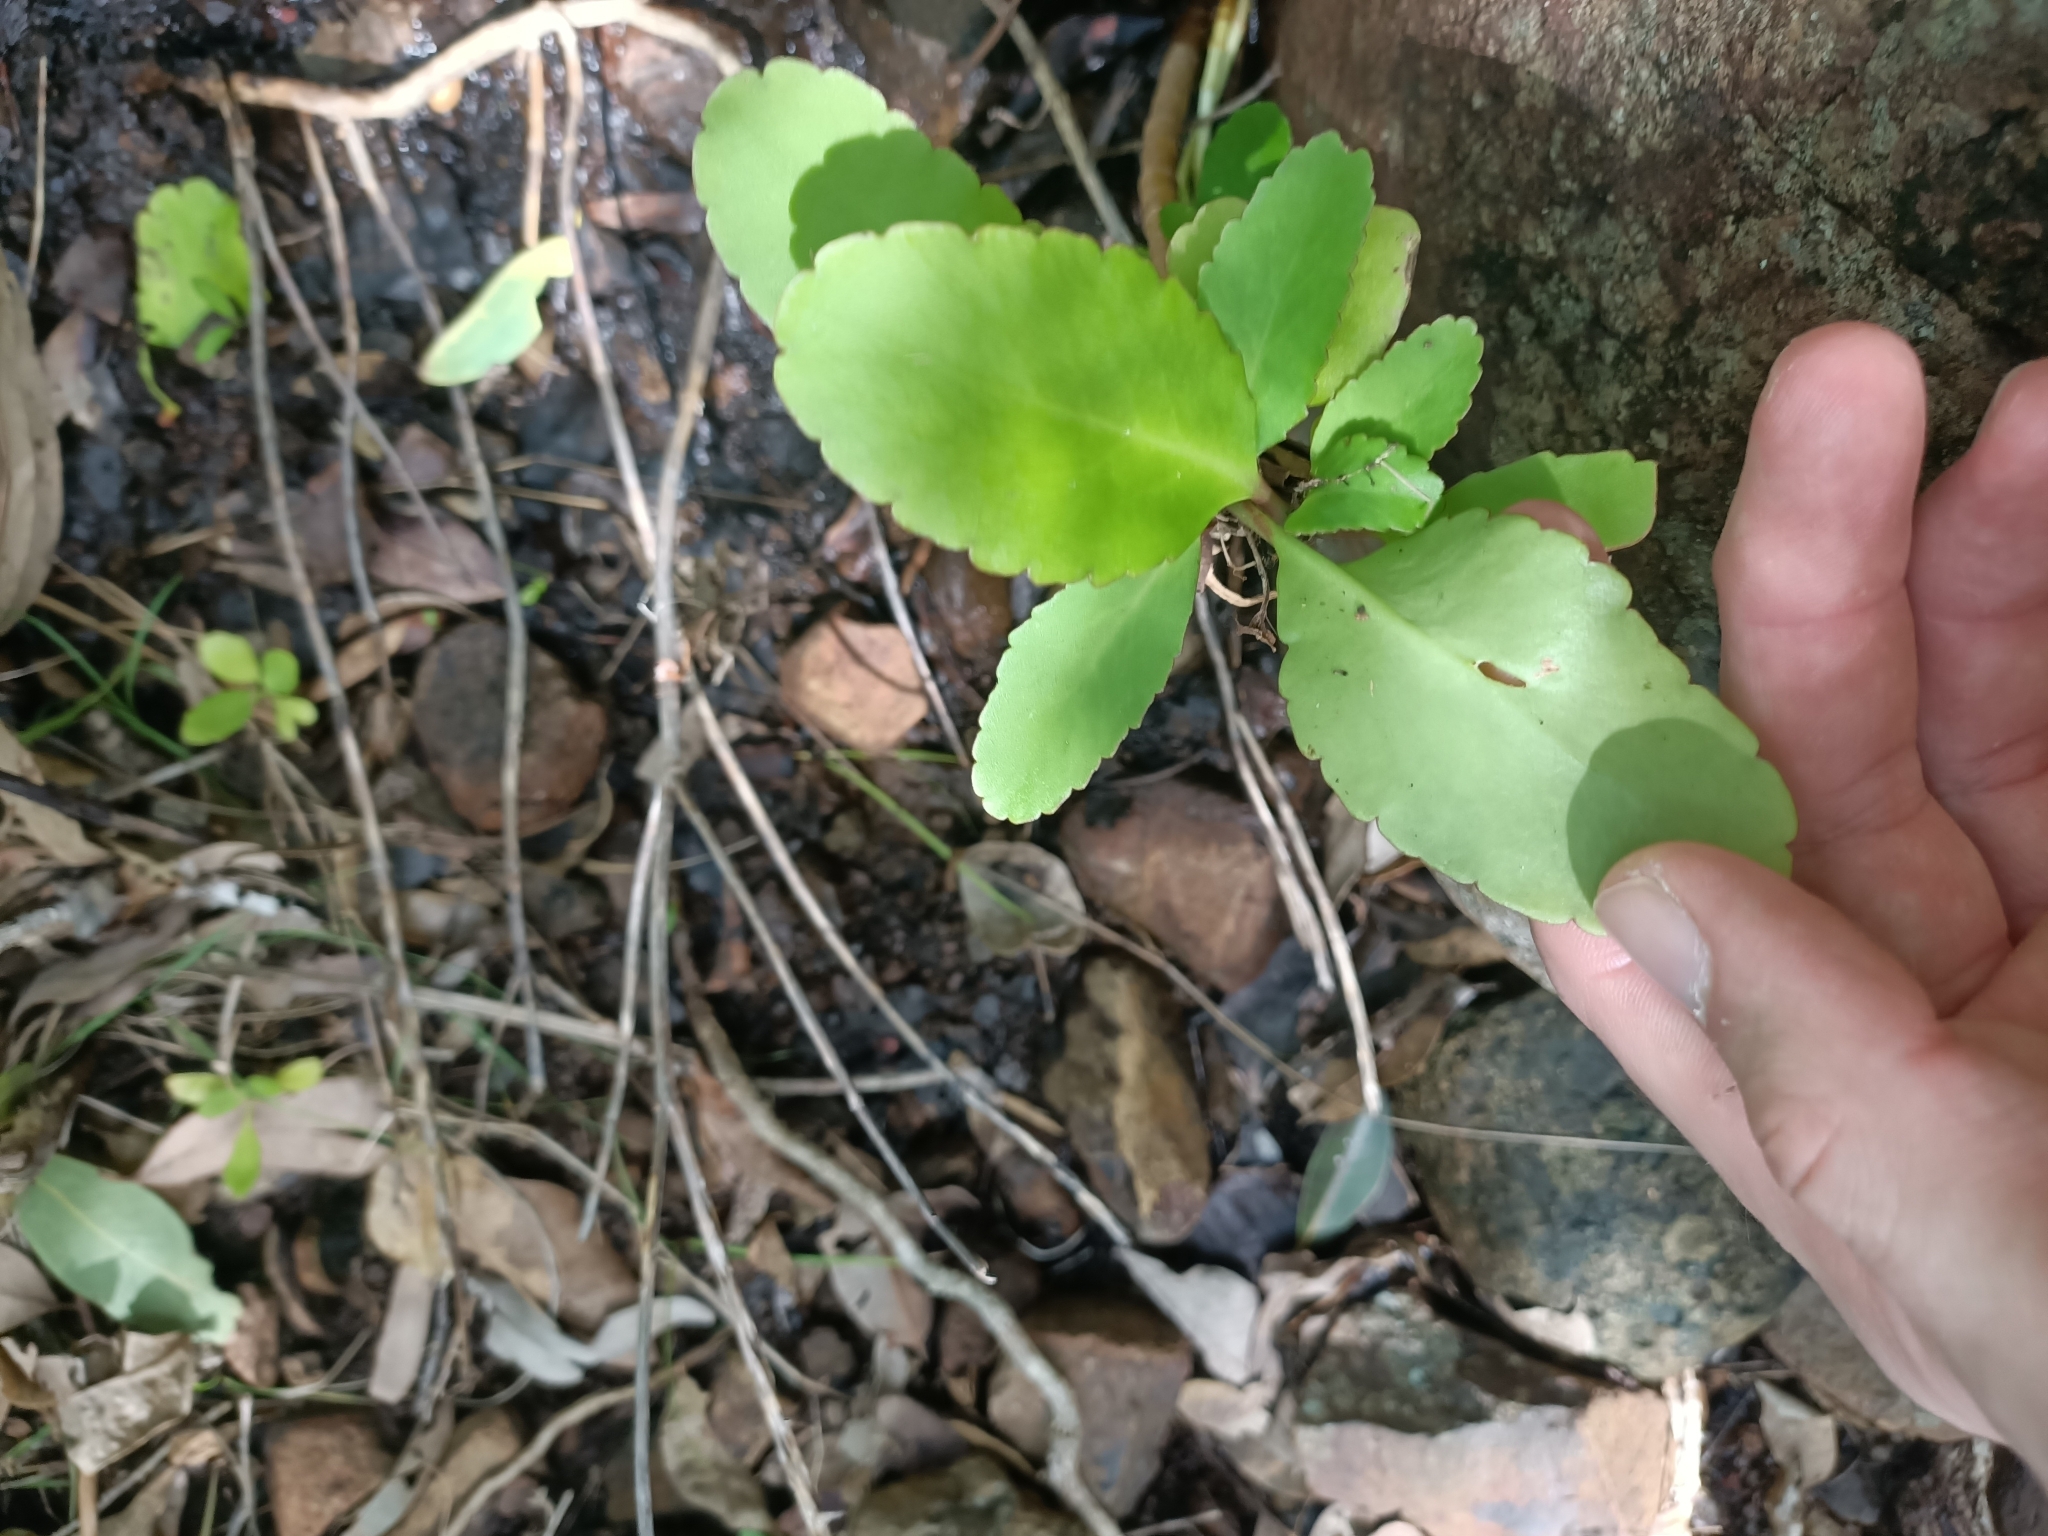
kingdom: Plantae
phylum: Tracheophyta
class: Magnoliopsida
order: Saxifragales
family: Crassulaceae
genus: Kalanchoe
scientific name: Kalanchoe pinnata
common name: Cathedral bells
